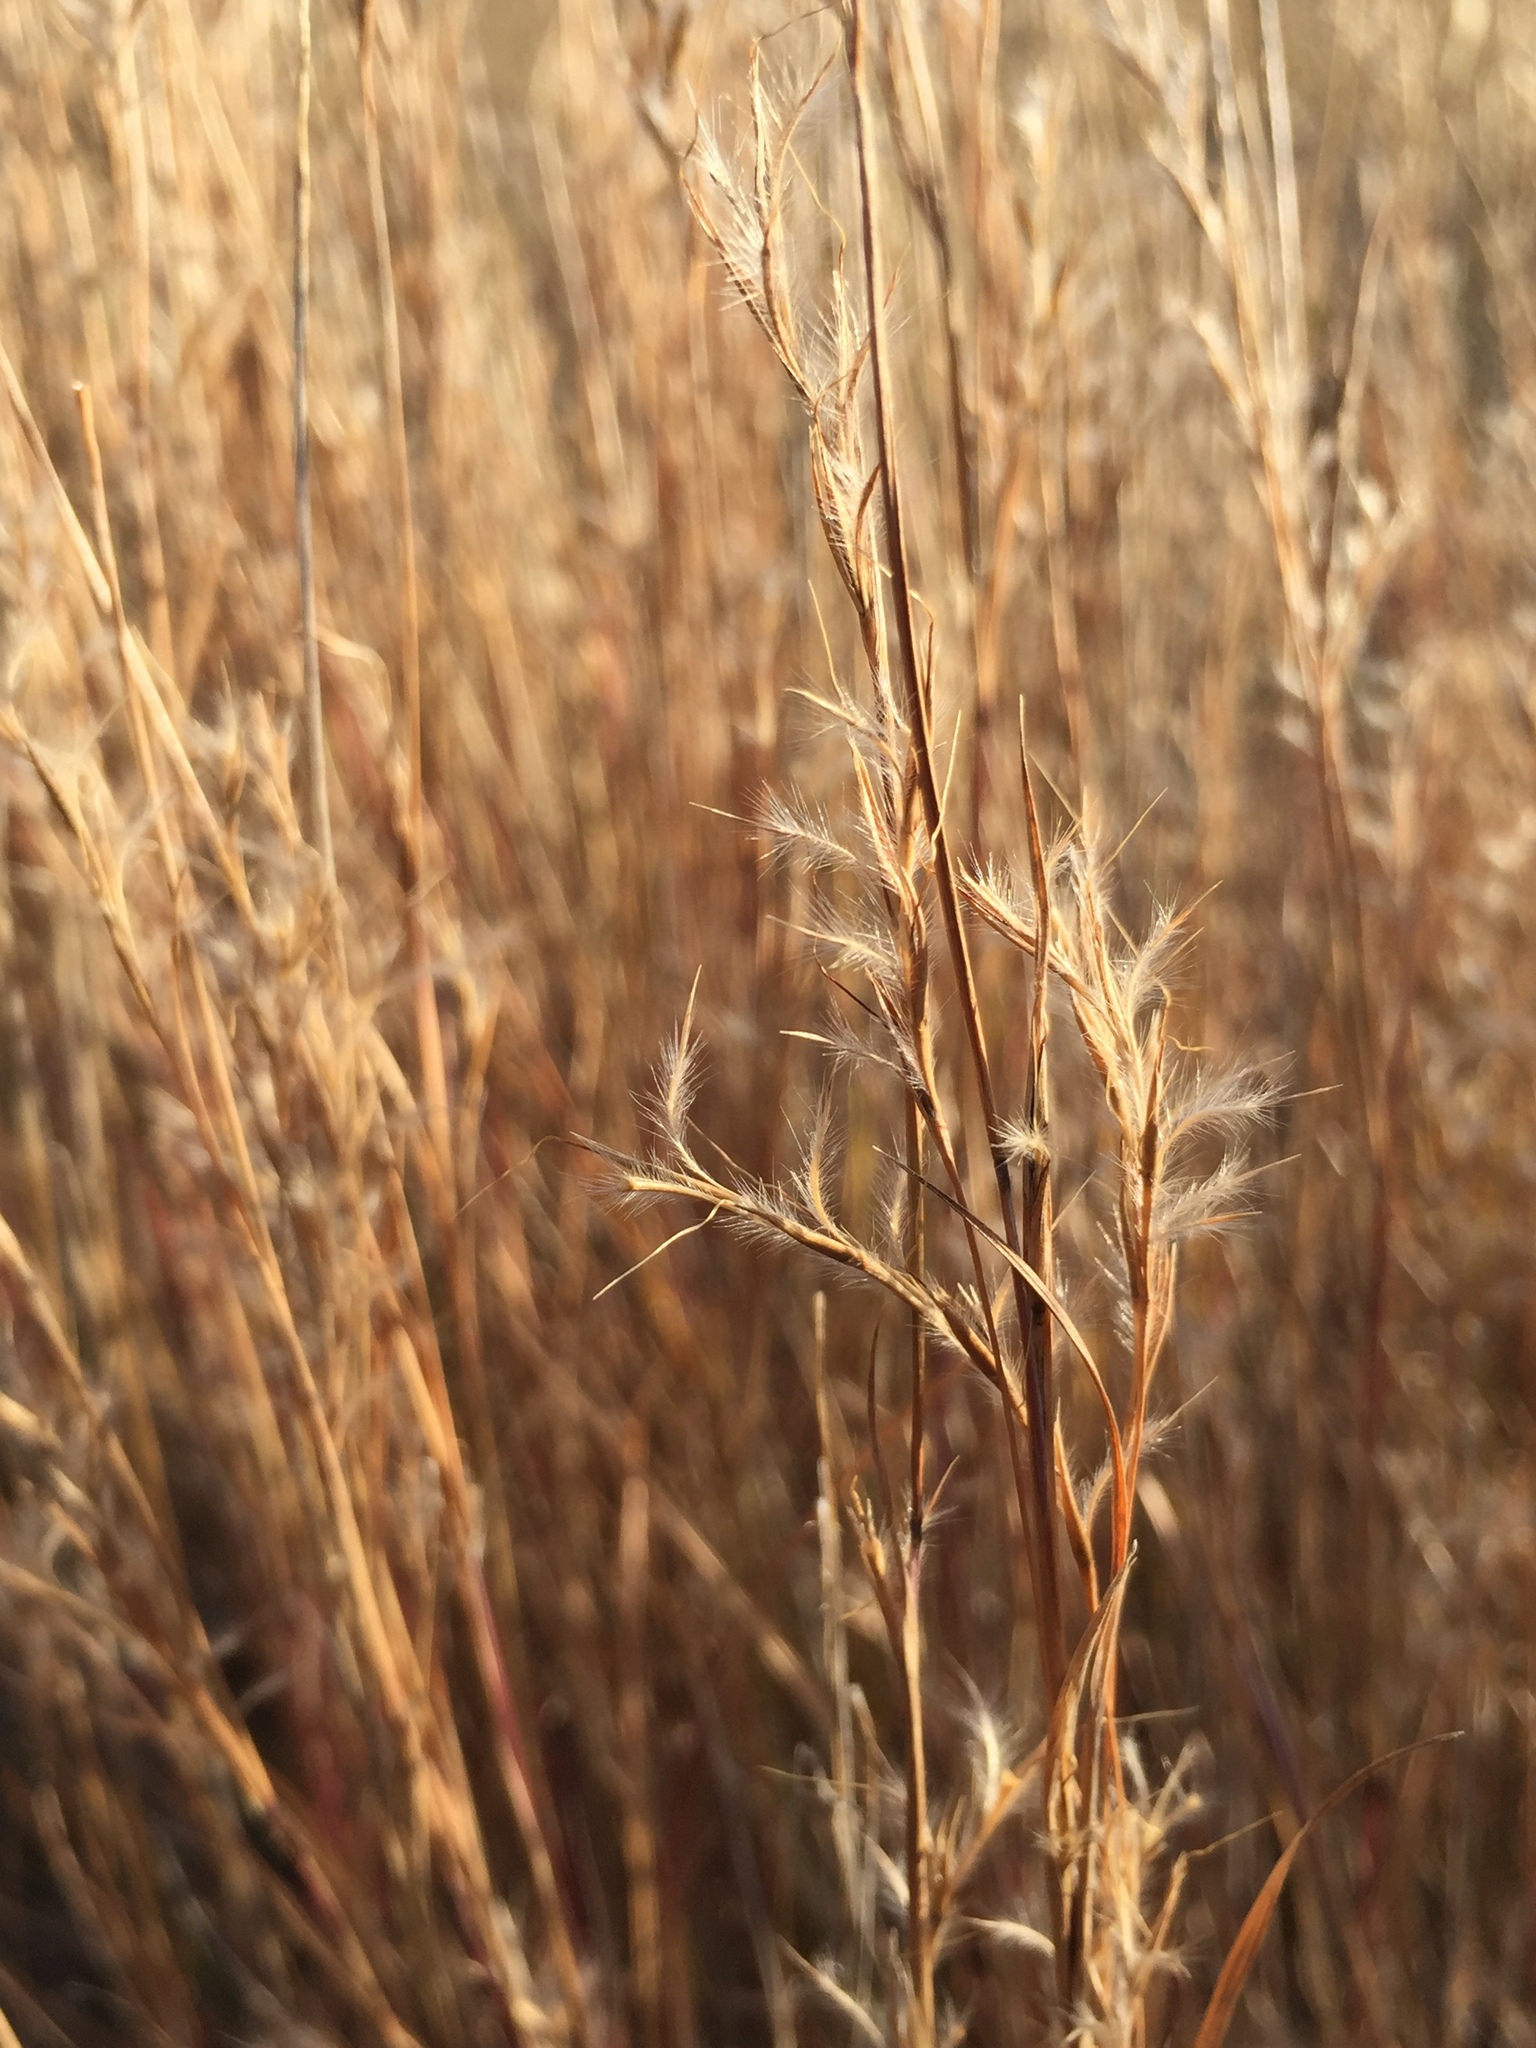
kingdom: Plantae
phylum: Tracheophyta
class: Liliopsida
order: Poales
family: Poaceae
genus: Schizachyrium
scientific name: Schizachyrium scoparium
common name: Little bluestem
